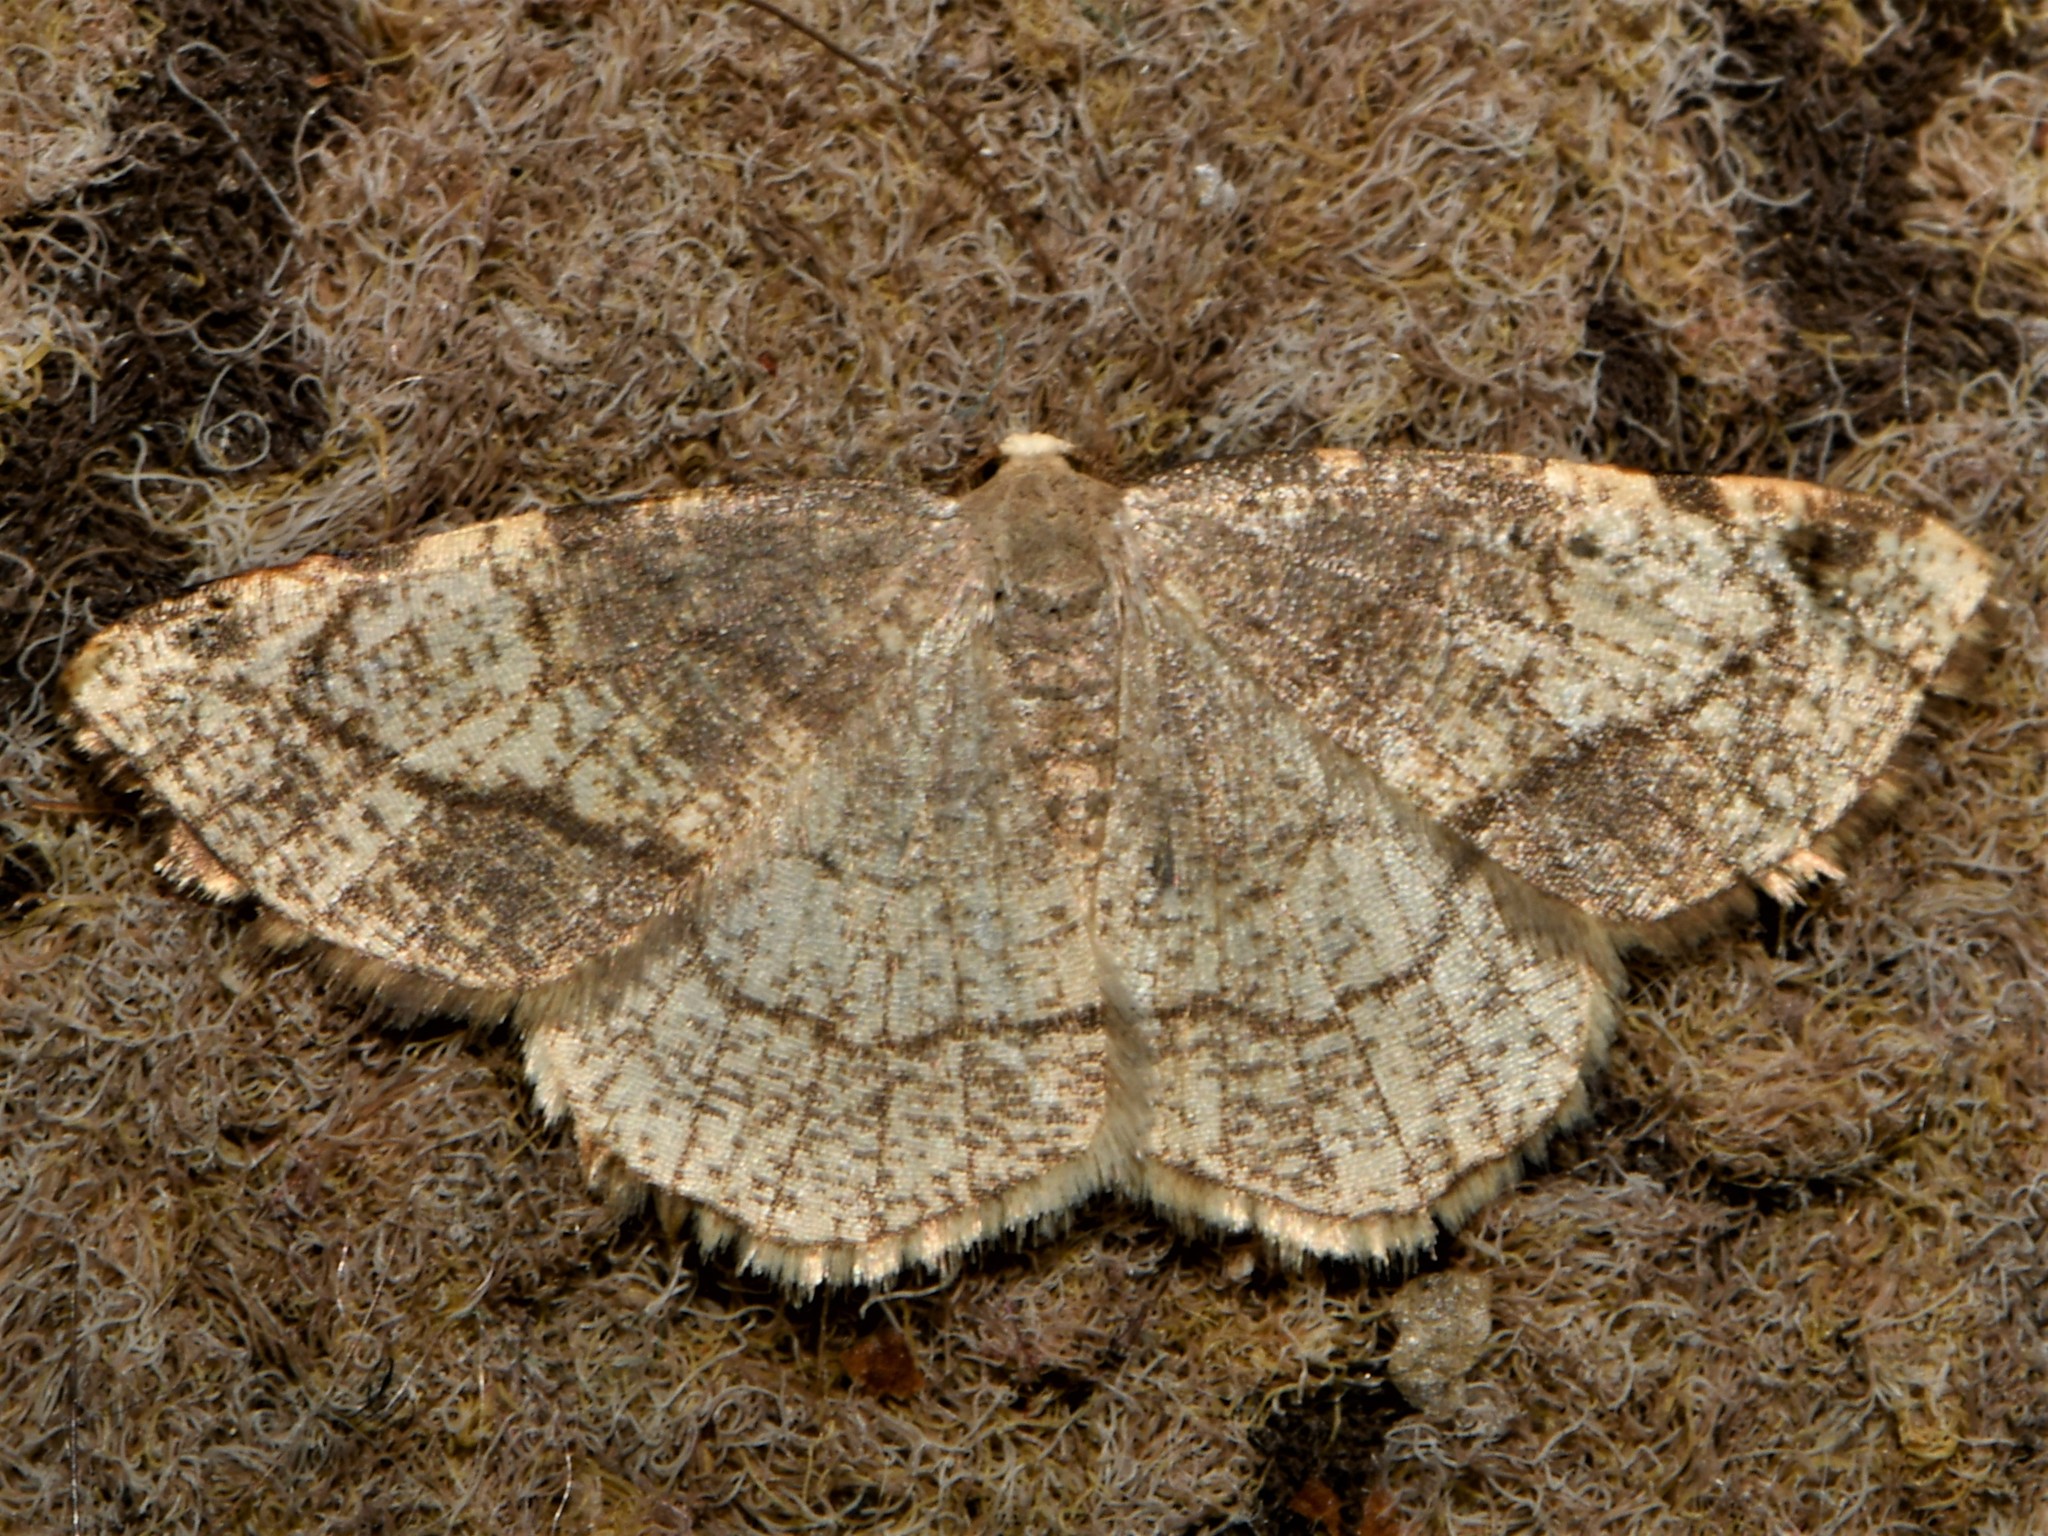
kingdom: Animalia
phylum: Arthropoda
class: Insecta
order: Lepidoptera
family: Geometridae
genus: Stegania
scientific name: Stegania trimaculata
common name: Dorset cream wave
